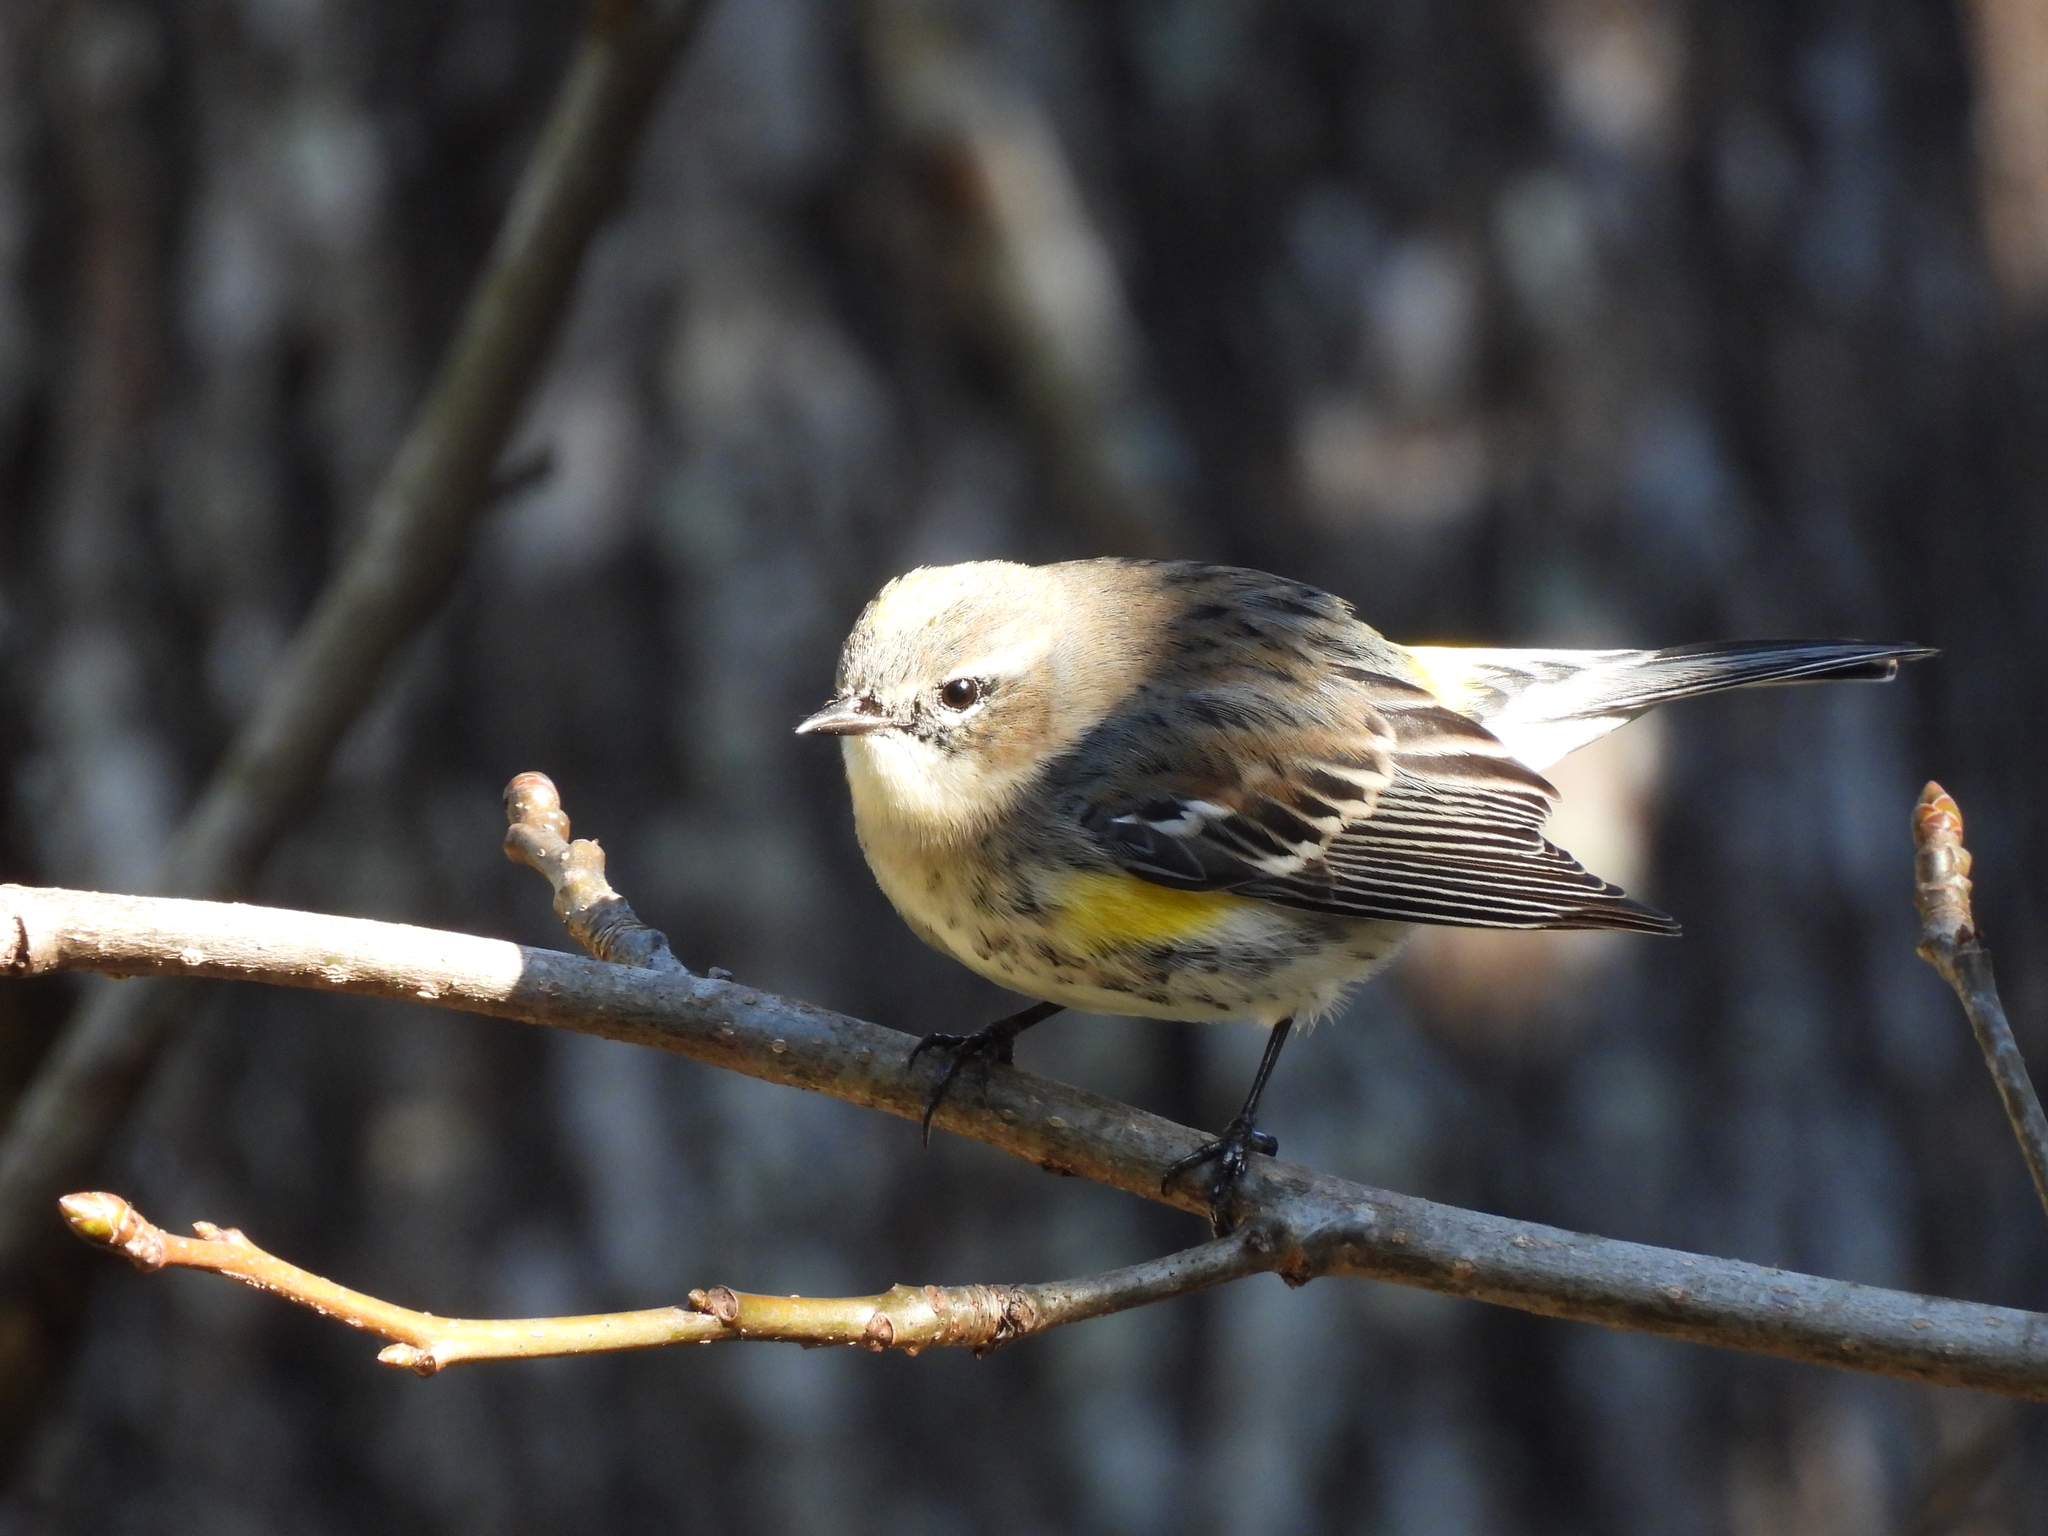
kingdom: Animalia
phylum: Chordata
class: Aves
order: Passeriformes
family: Parulidae
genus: Setophaga
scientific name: Setophaga coronata
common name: Myrtle warbler
